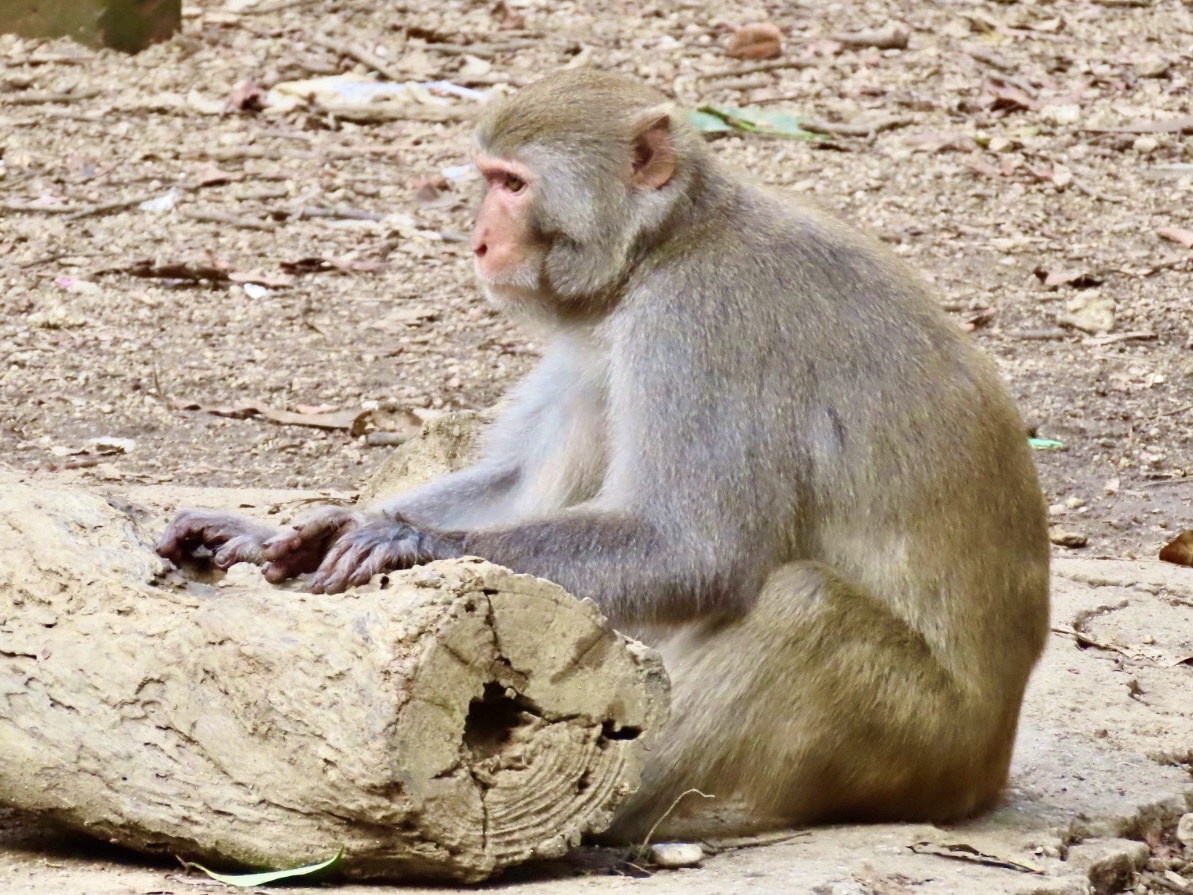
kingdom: Animalia
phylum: Chordata
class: Mammalia
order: Primates
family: Cercopithecidae
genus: Macaca
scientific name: Macaca mulatta
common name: Rhesus monkey
